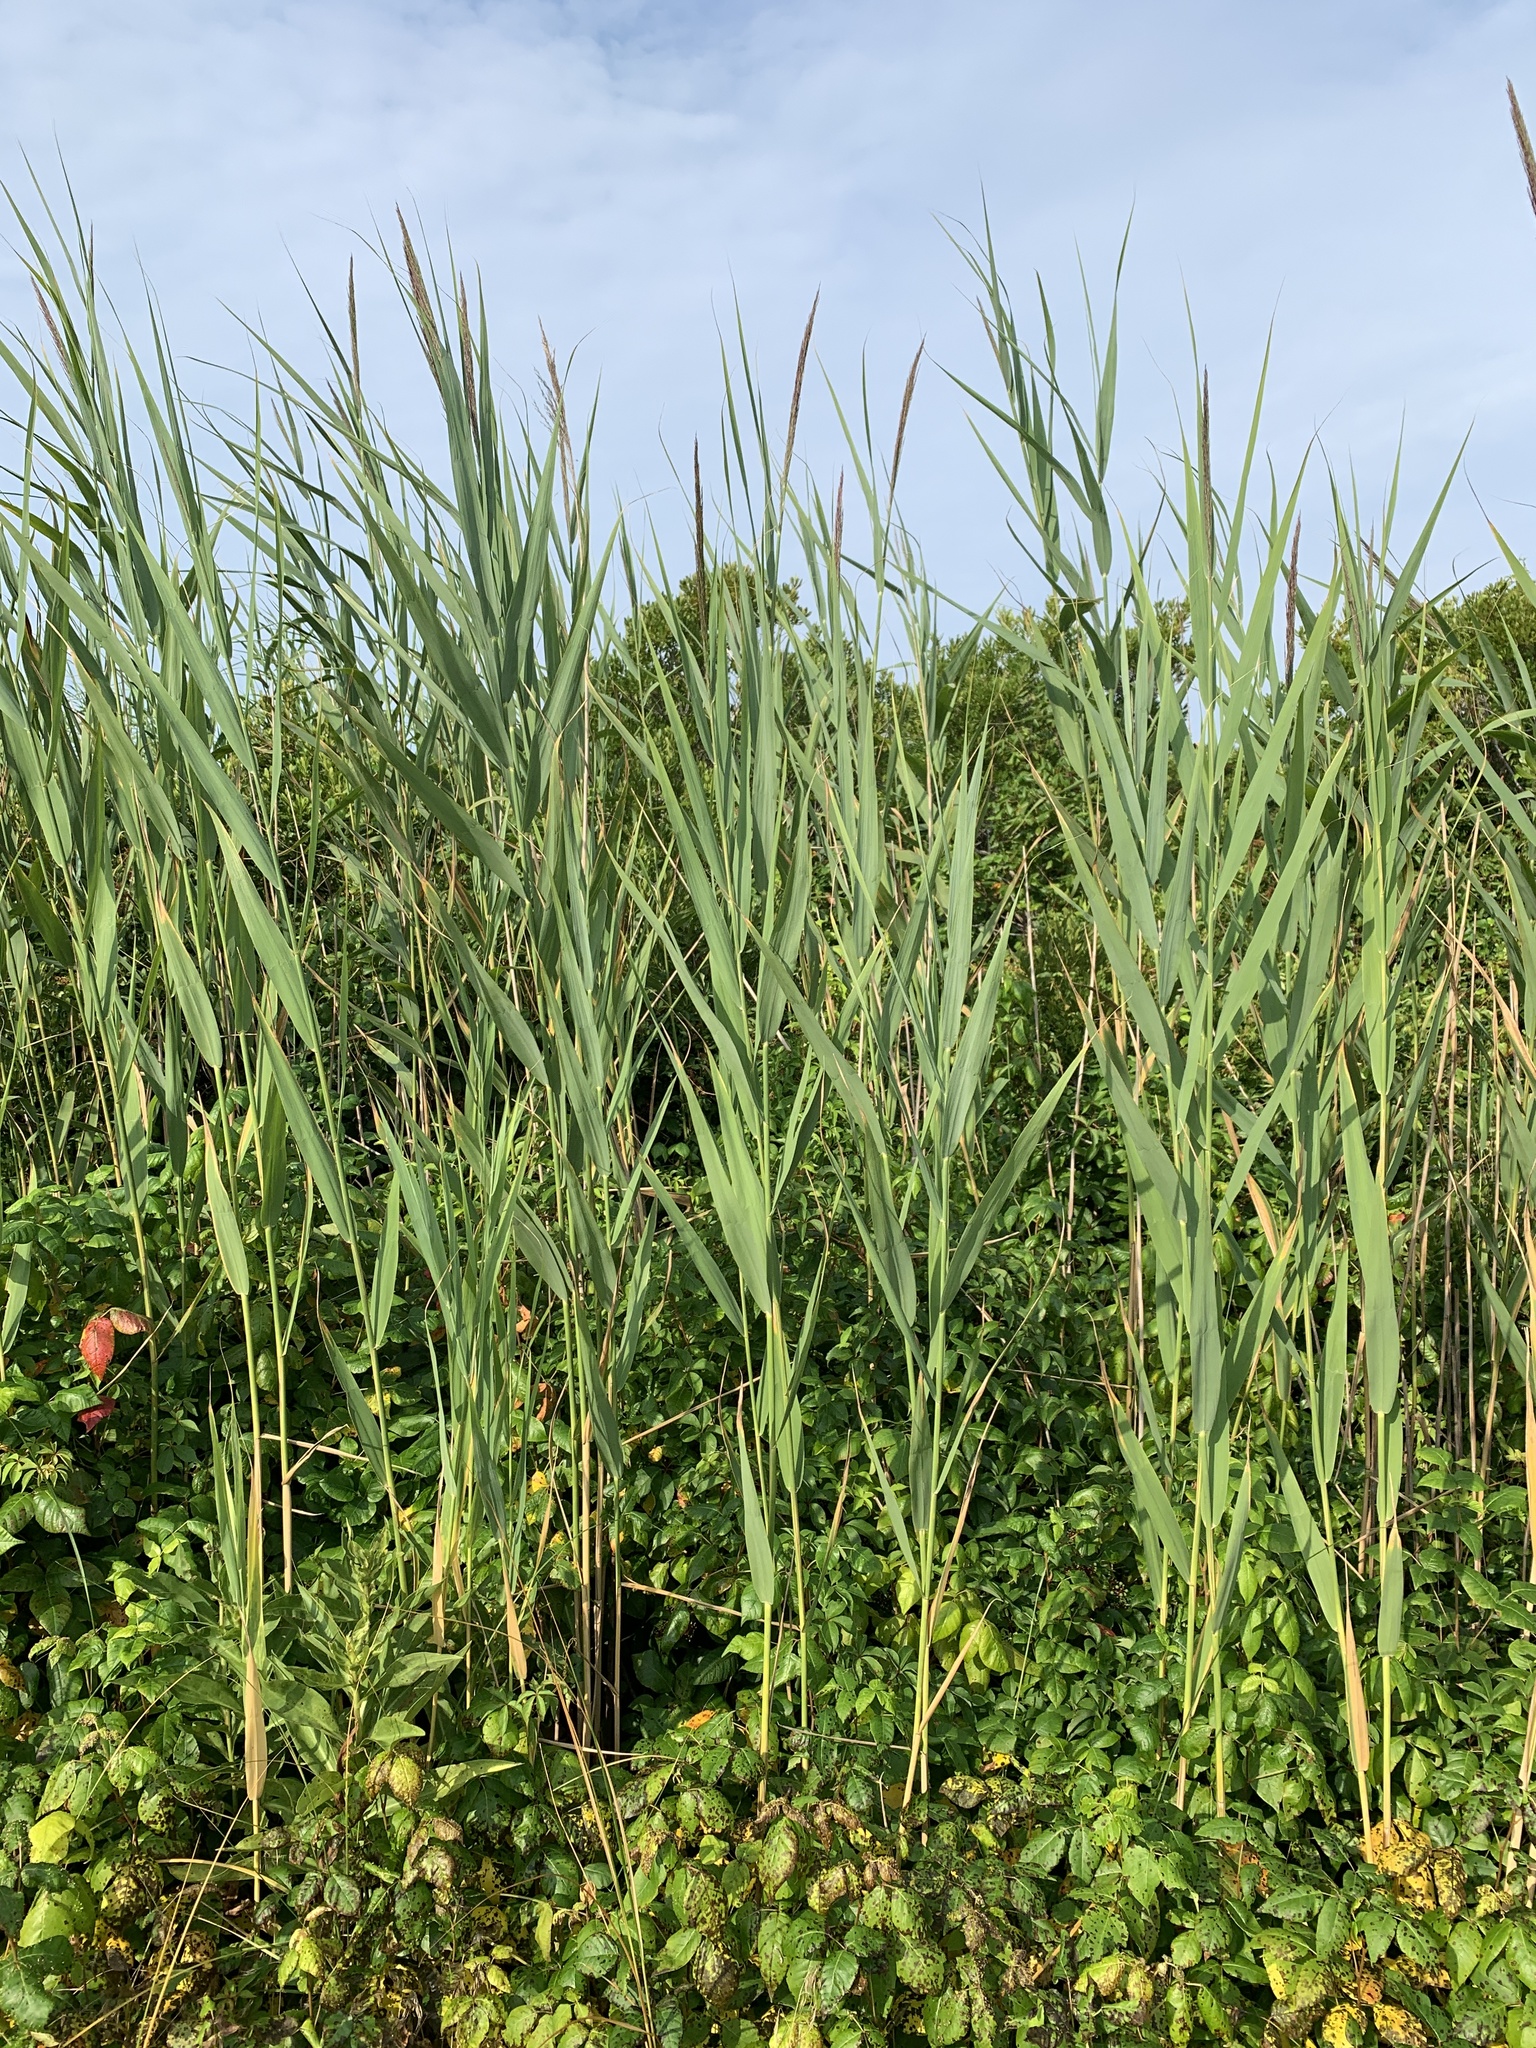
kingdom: Plantae
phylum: Tracheophyta
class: Liliopsida
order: Poales
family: Poaceae
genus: Phragmites
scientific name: Phragmites australis
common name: Common reed
